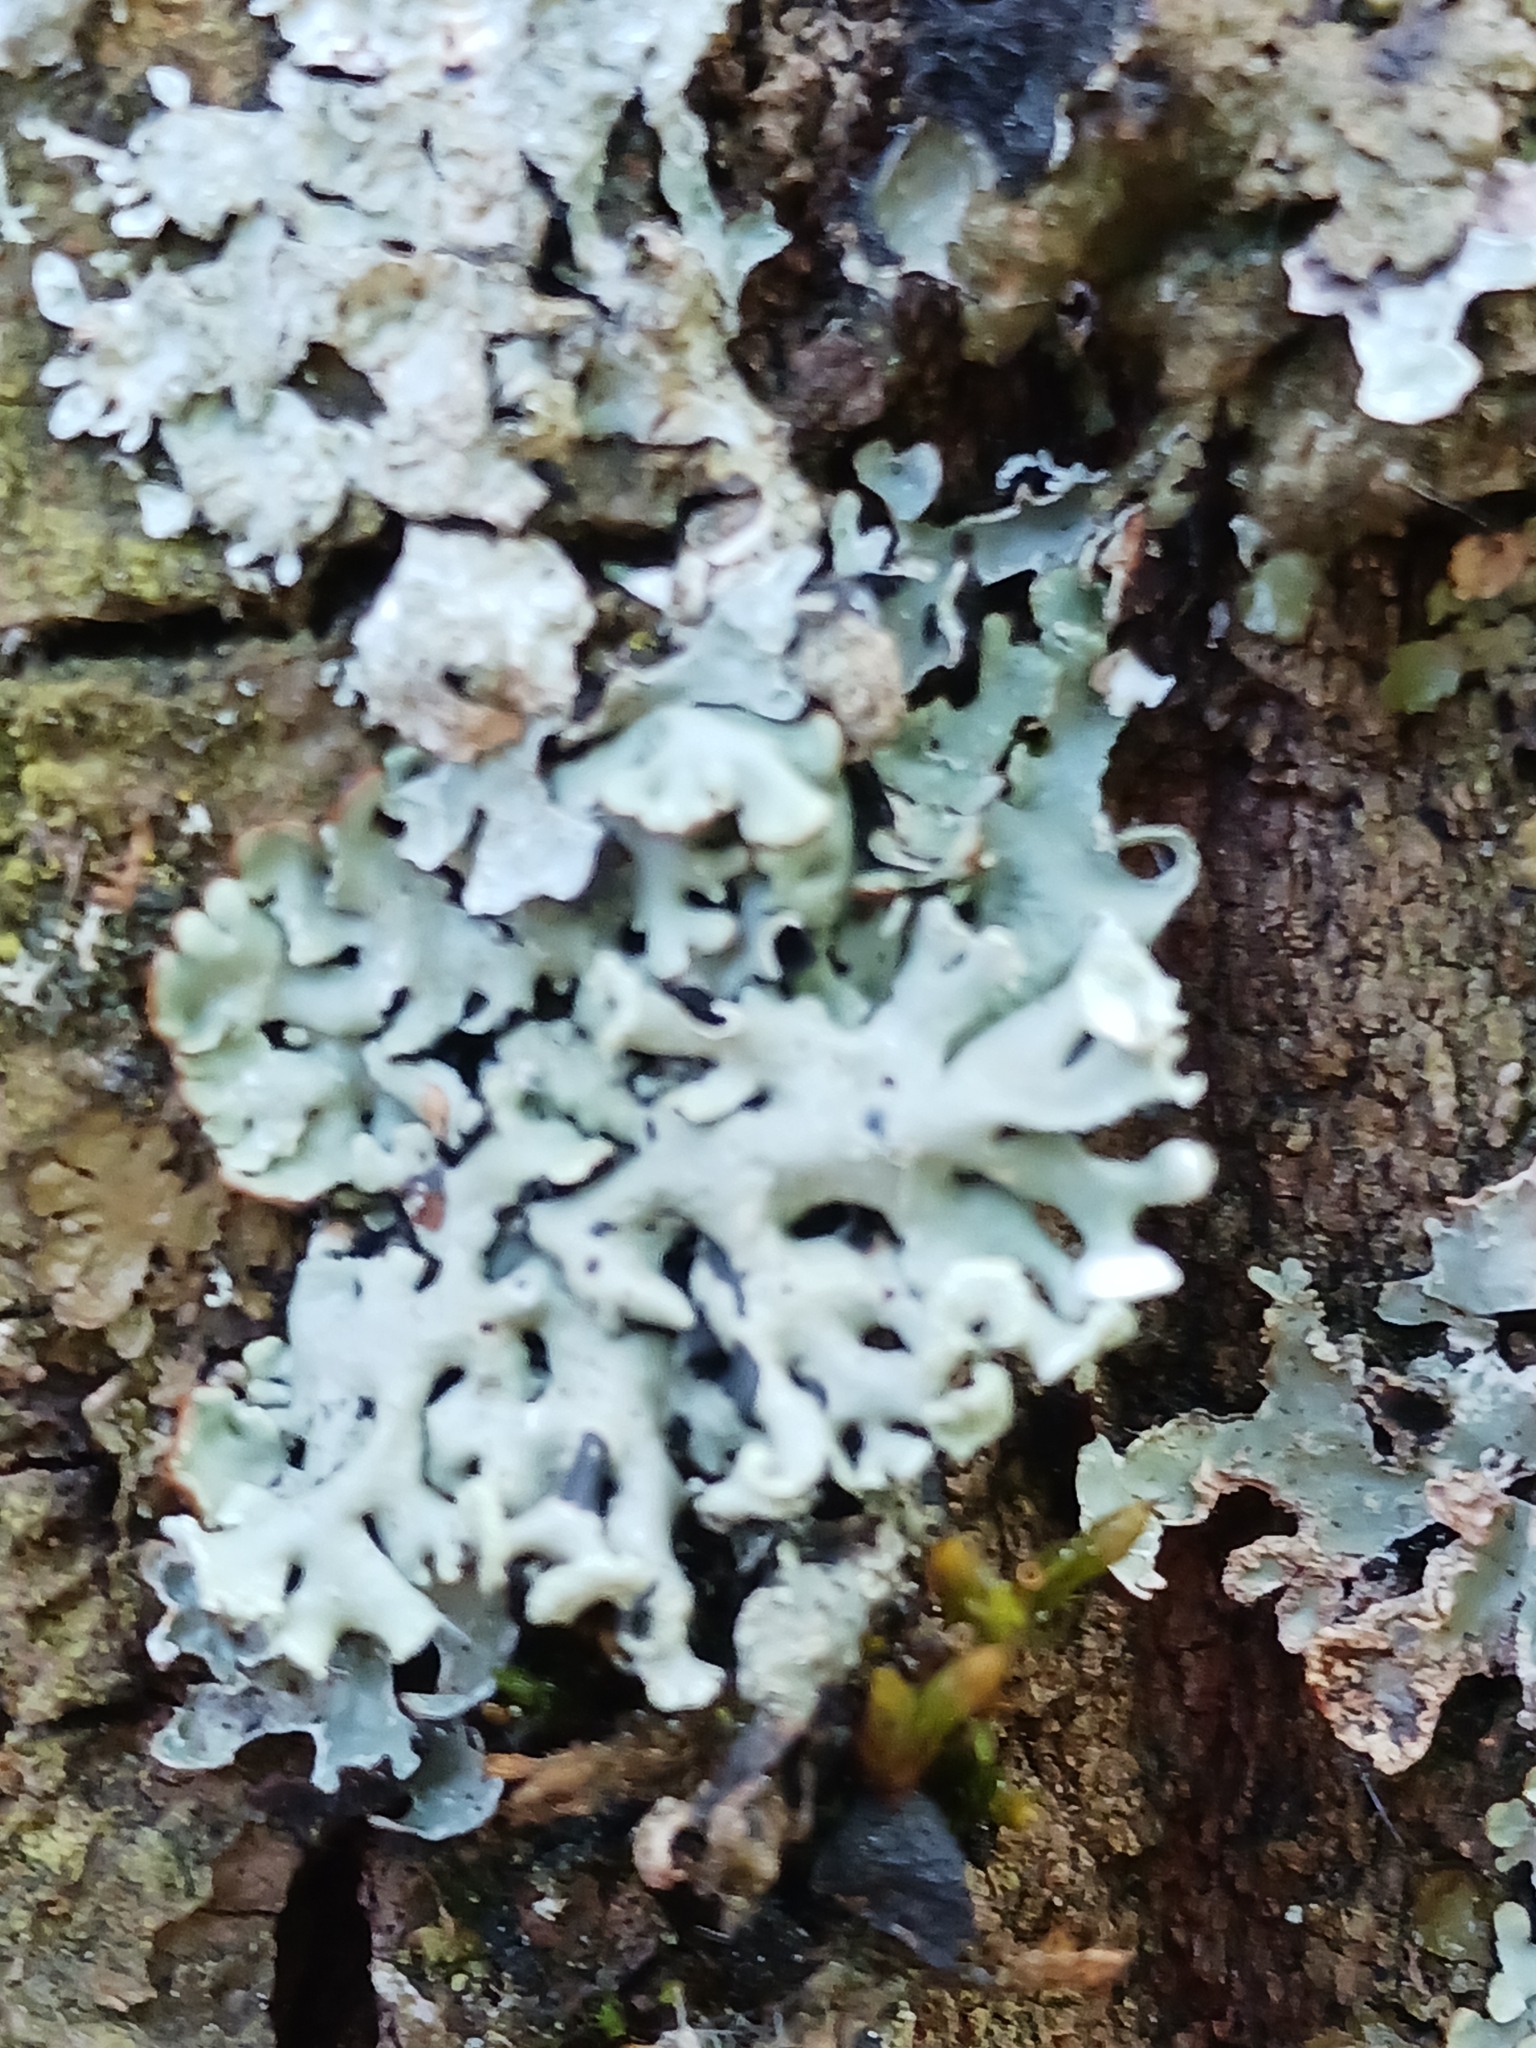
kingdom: Fungi
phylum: Ascomycota
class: Lecanoromycetes
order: Lecanorales
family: Parmeliaceae
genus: Hypogymnia
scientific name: Hypogymnia physodes
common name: Dark crottle
